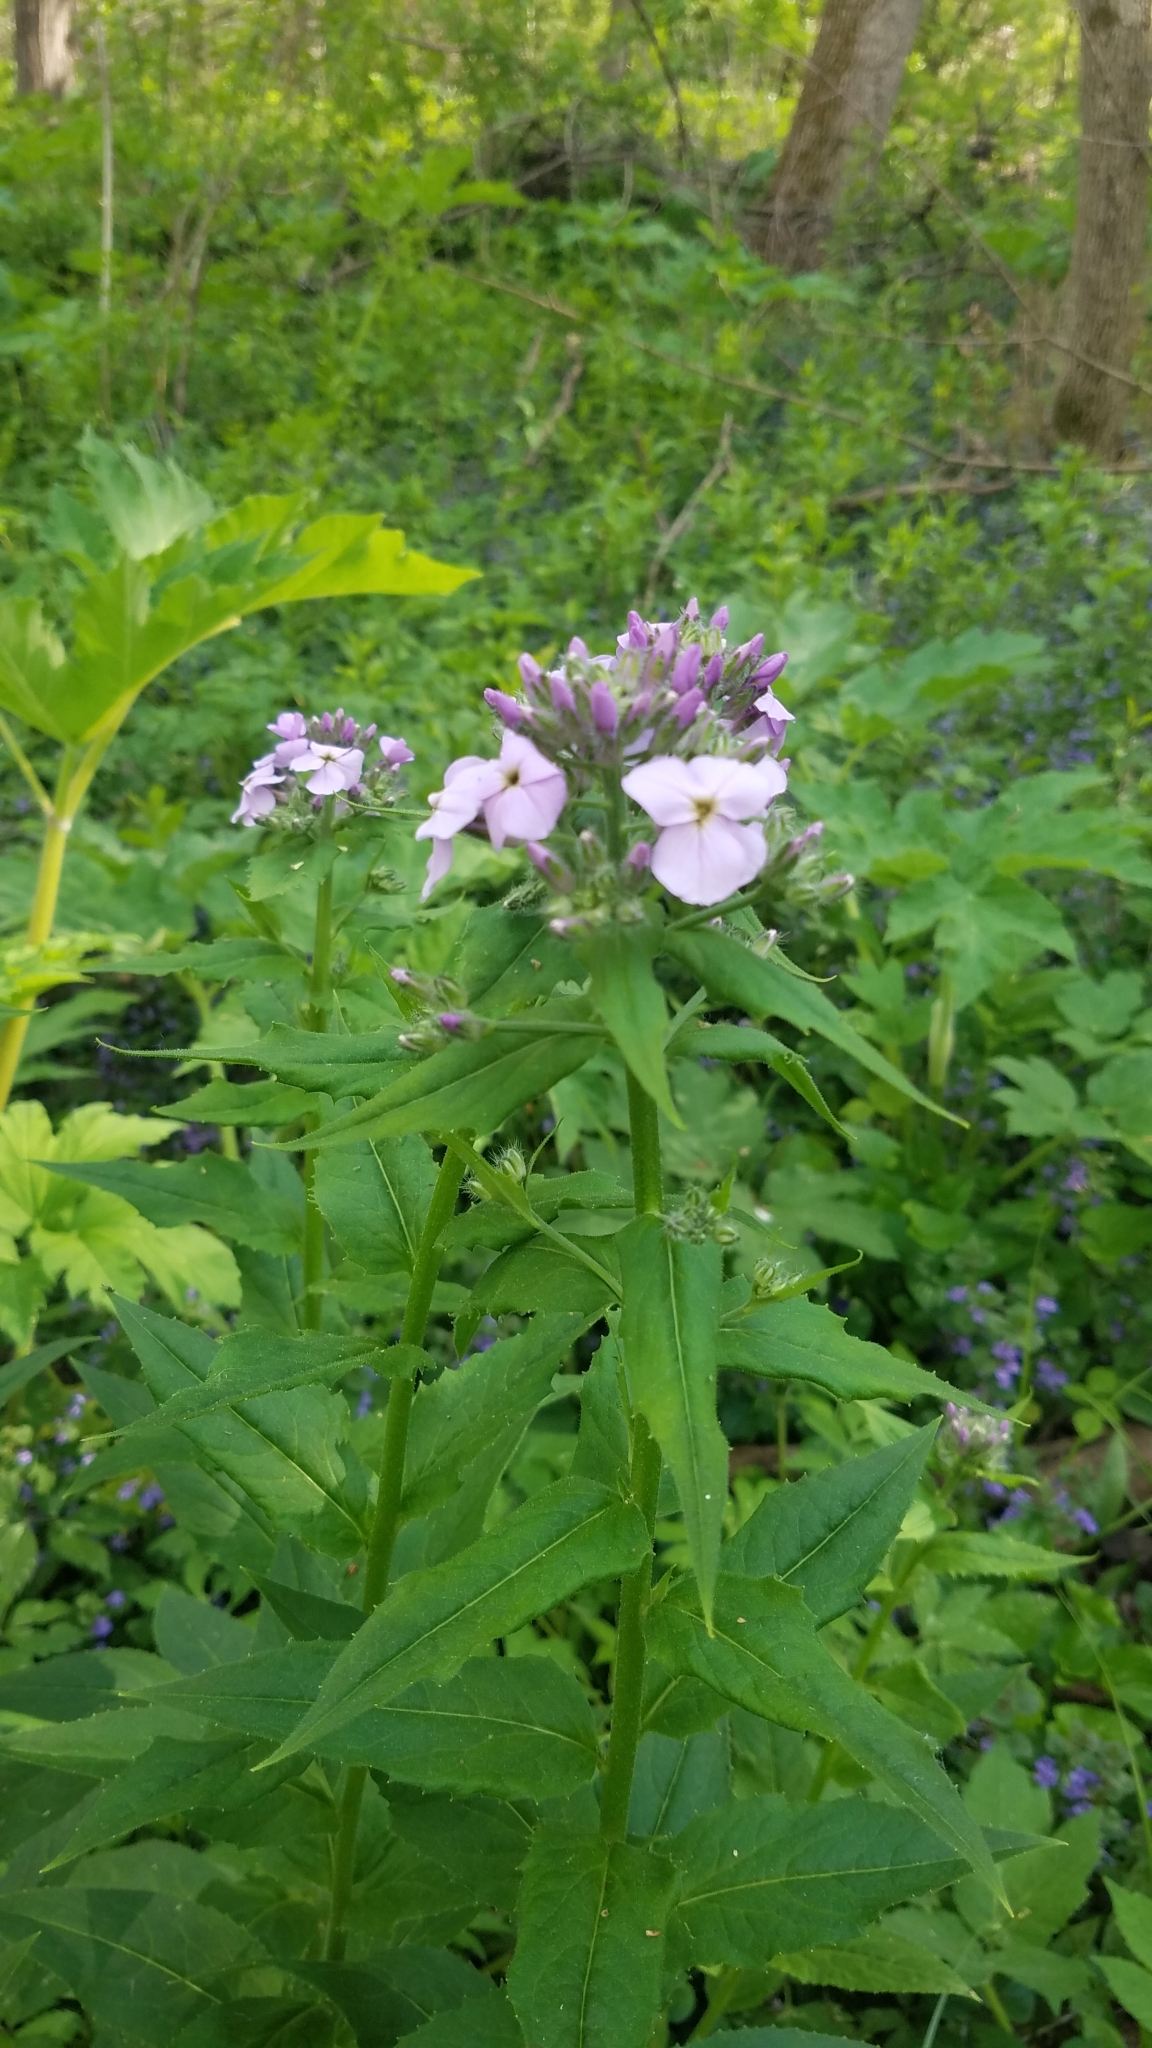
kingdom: Plantae
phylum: Tracheophyta
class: Magnoliopsida
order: Brassicales
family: Brassicaceae
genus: Hesperis
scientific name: Hesperis matronalis
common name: Dame's-violet
